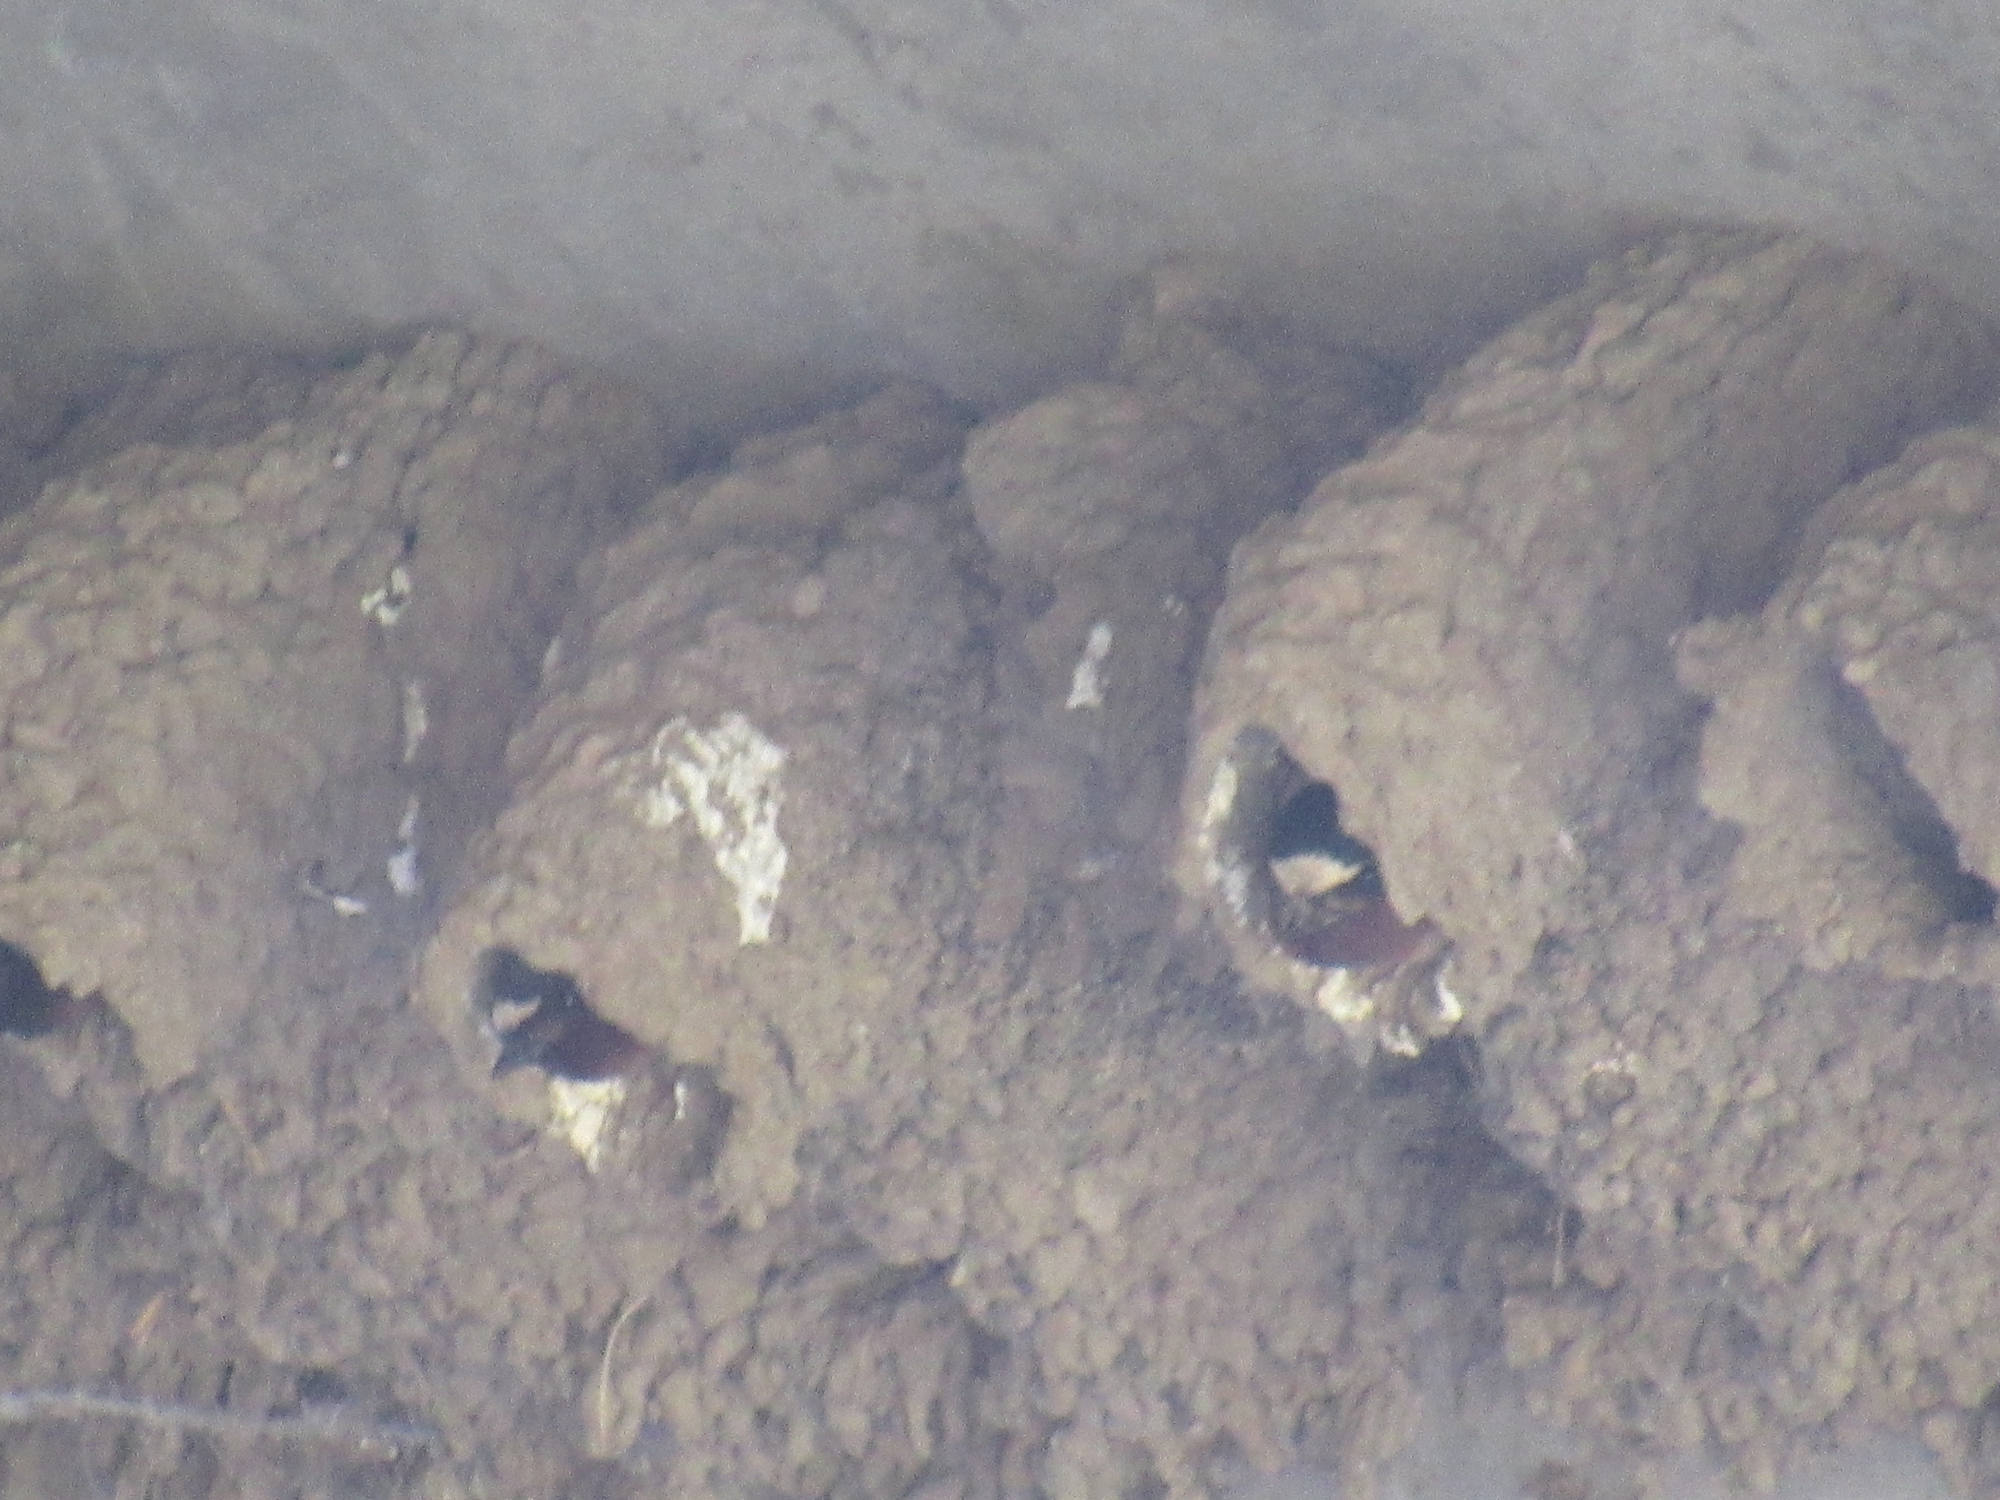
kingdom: Animalia
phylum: Chordata
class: Aves
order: Passeriformes
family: Hirundinidae
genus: Petrochelidon
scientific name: Petrochelidon pyrrhonota
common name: American cliff swallow
